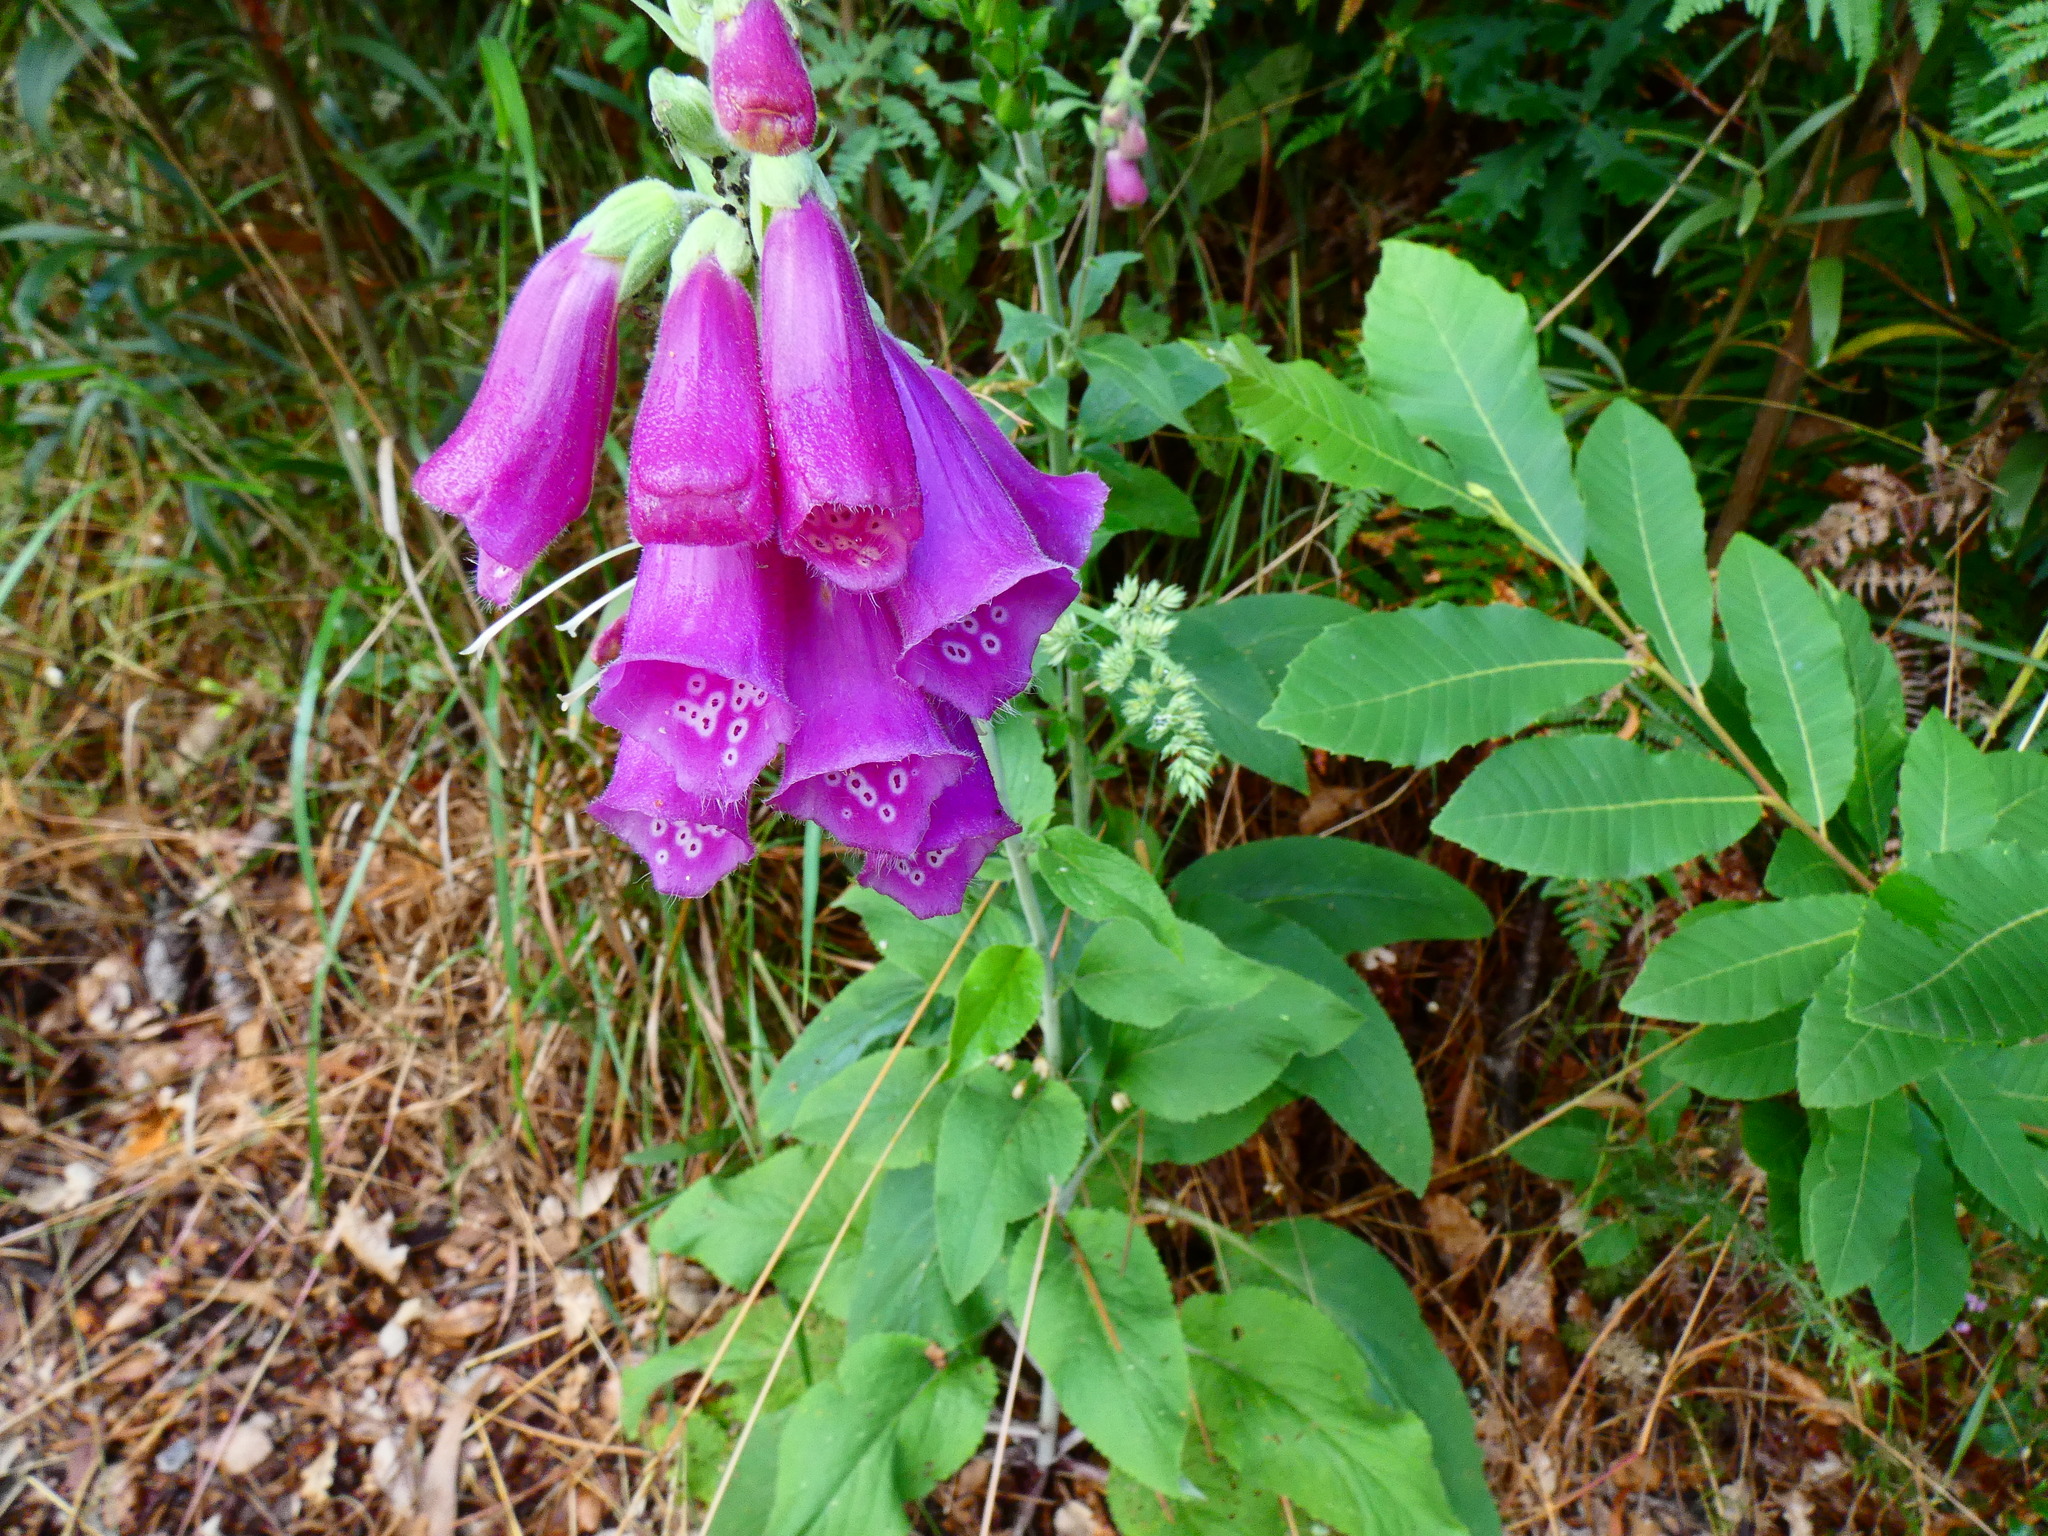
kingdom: Plantae
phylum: Tracheophyta
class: Magnoliopsida
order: Lamiales
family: Plantaginaceae
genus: Digitalis
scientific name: Digitalis purpurea
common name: Foxglove
